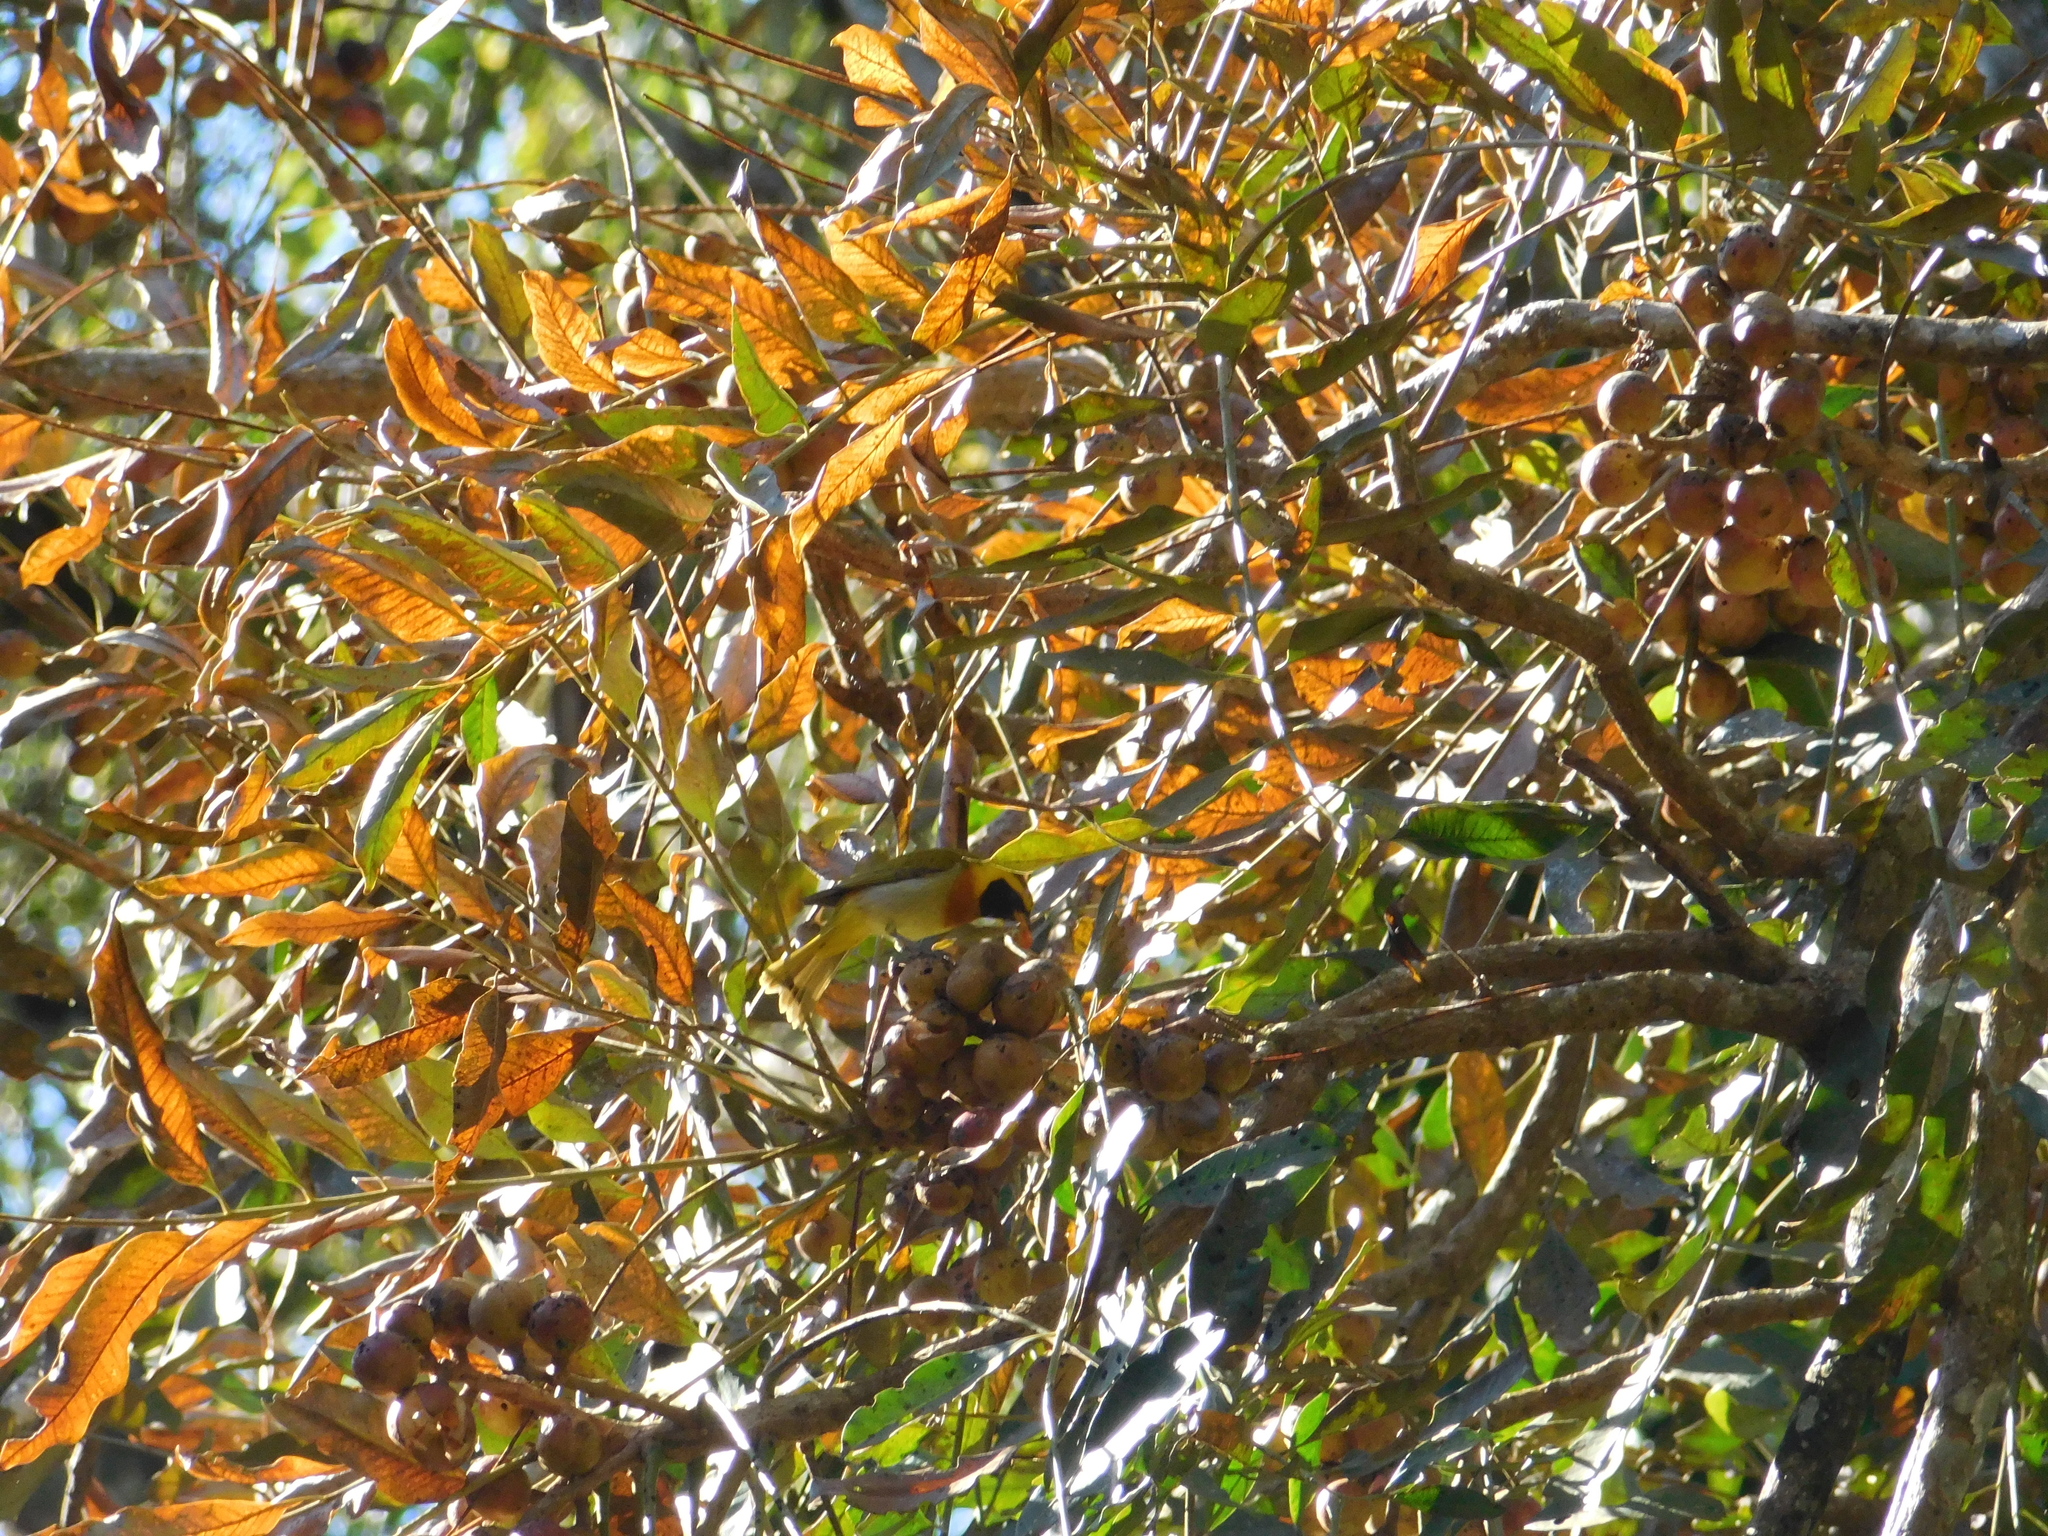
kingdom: Animalia
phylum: Chordata
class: Aves
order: Passeriformes
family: Thraupidae
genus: Hemithraupis
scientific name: Hemithraupis guira
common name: Guira tanager
